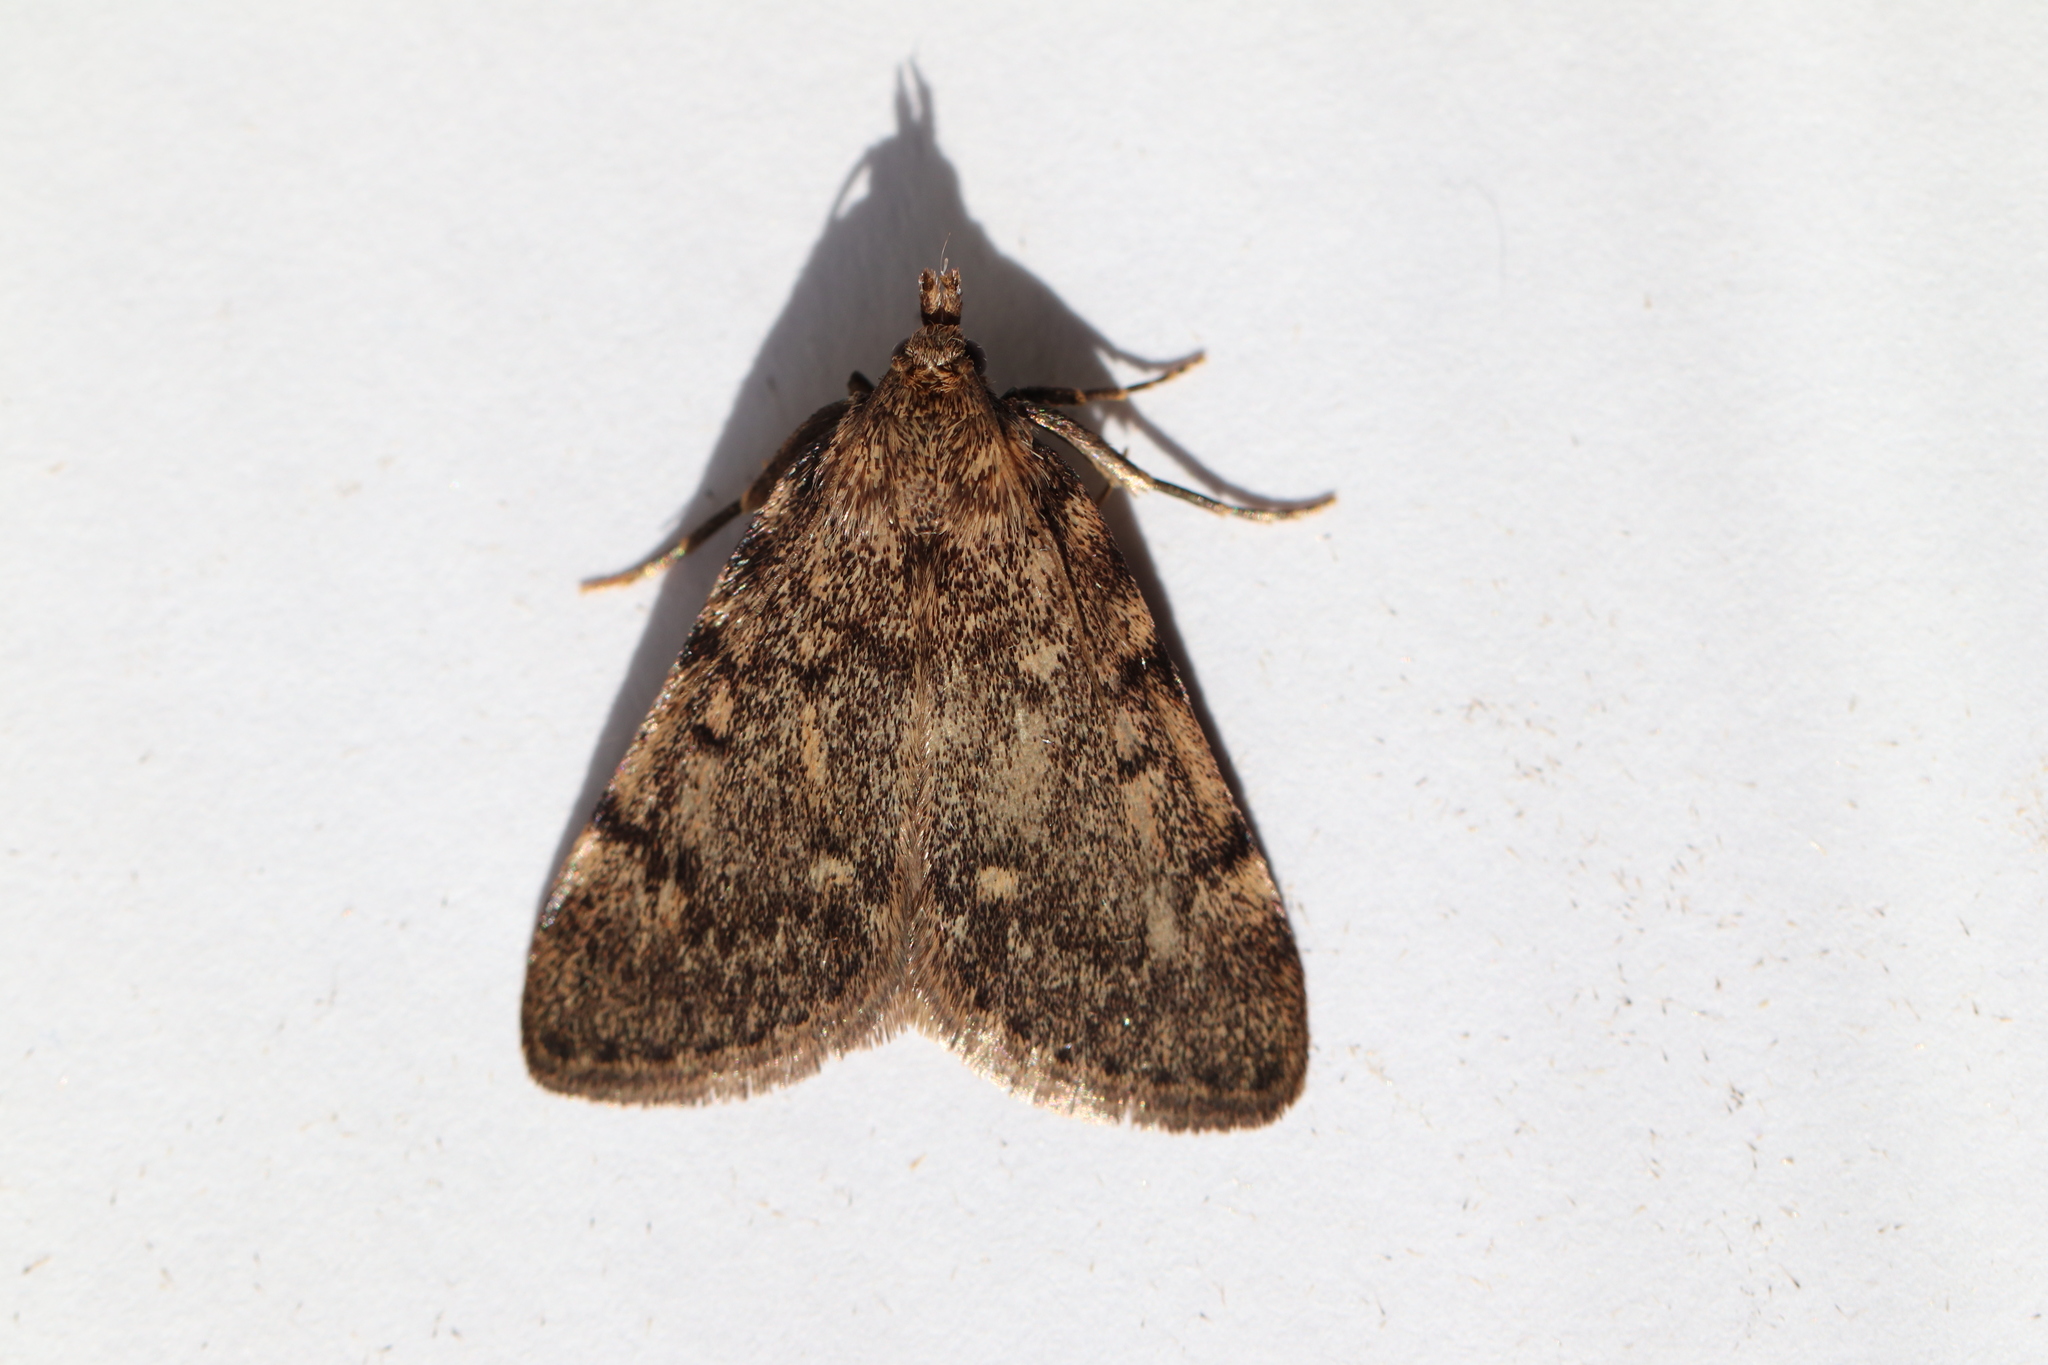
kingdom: Animalia
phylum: Arthropoda
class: Insecta
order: Lepidoptera
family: Pyralidae
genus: Aglossa
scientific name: Aglossa pinguinalis
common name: Large tabby
